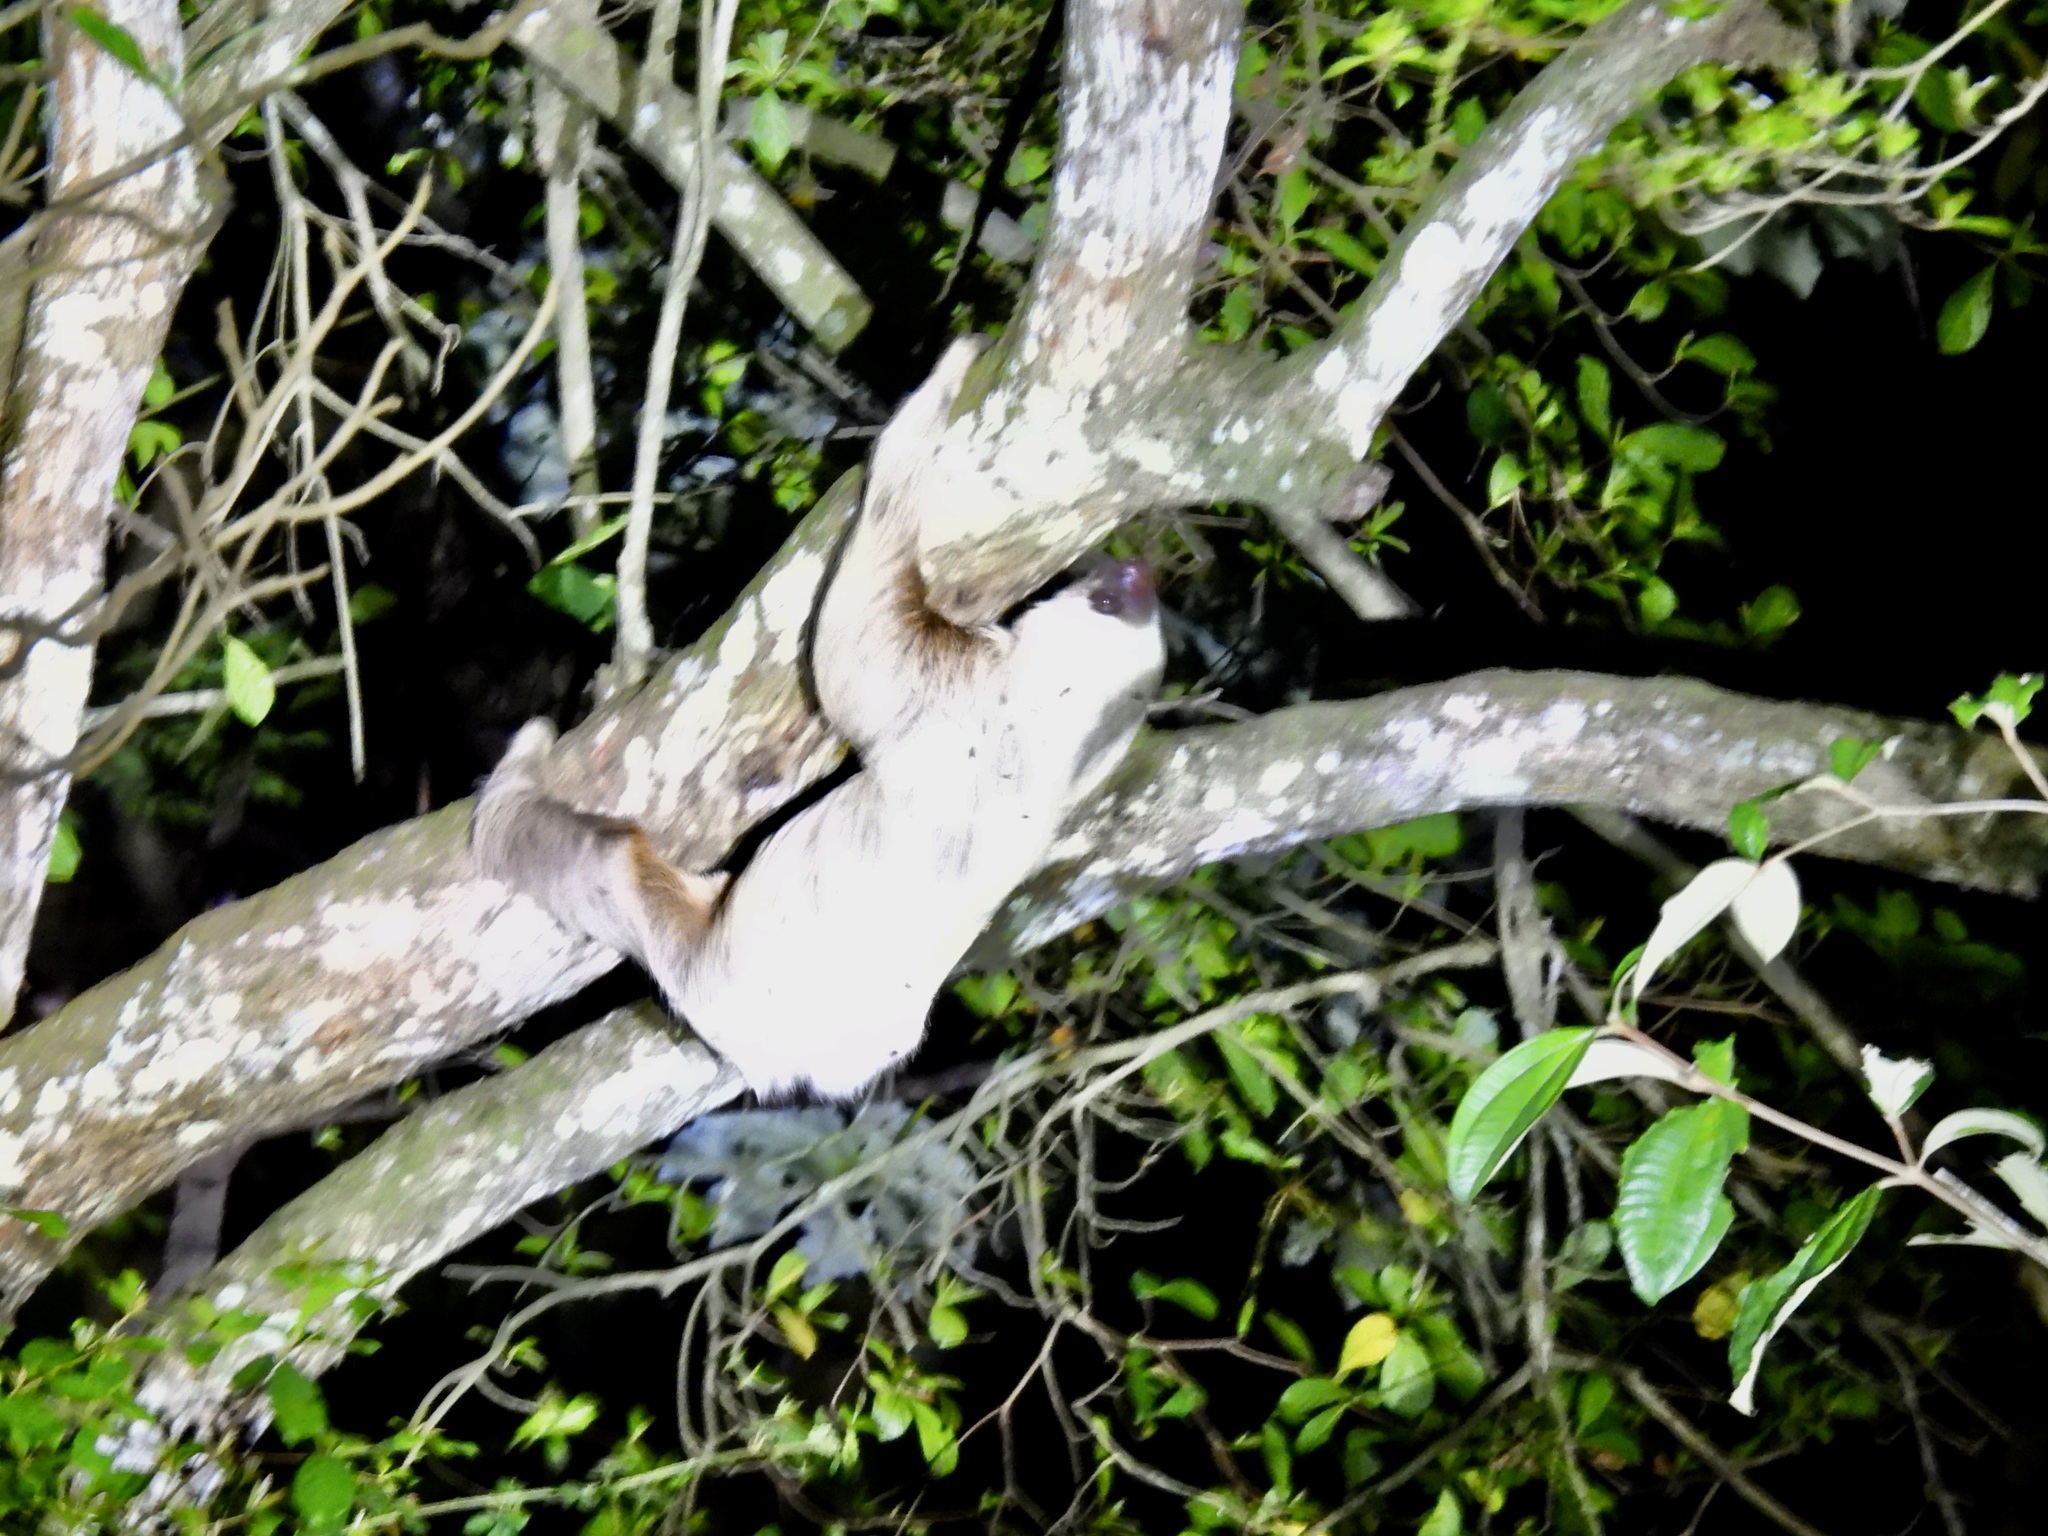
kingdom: Animalia
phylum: Chordata
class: Mammalia
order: Pilosa
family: Megalonychidae
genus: Choloepus
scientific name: Choloepus hoffmanni
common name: Hoffmann's two-toed sloth
